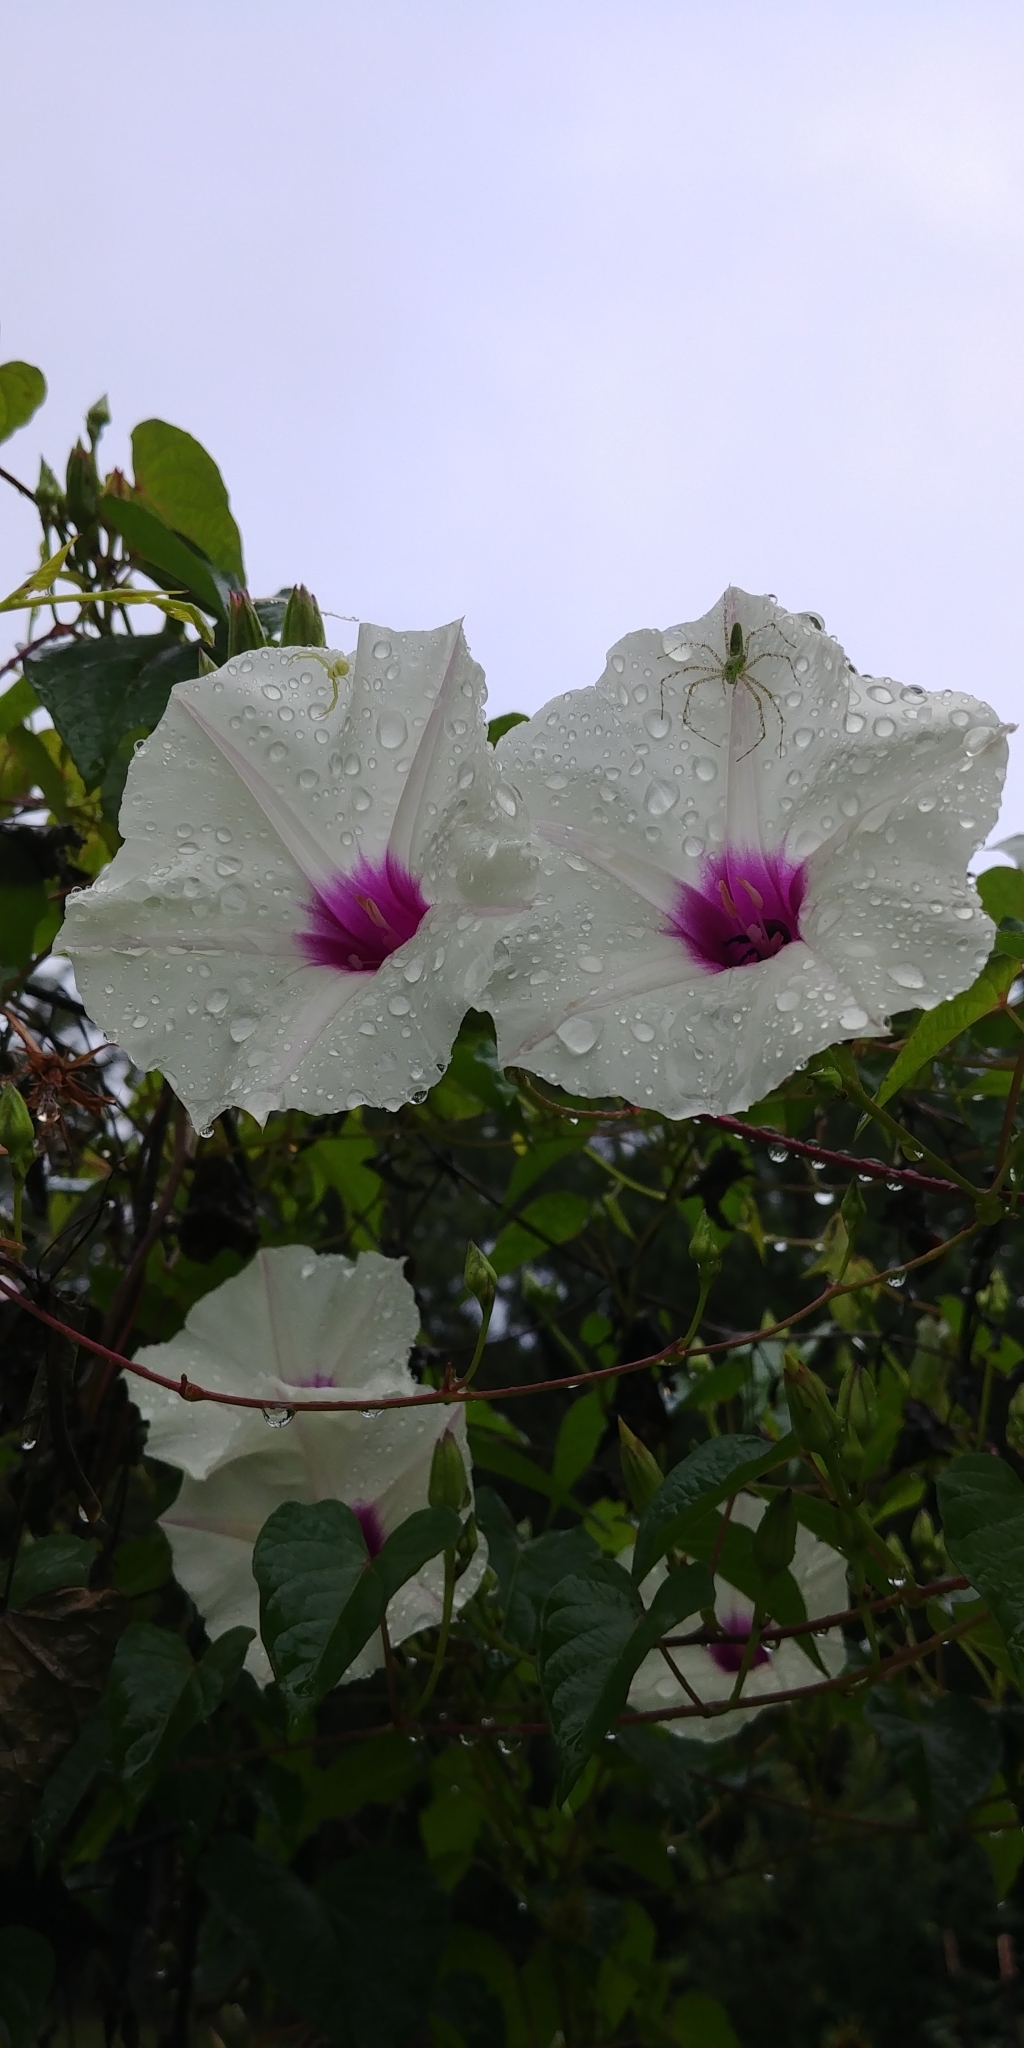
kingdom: Plantae
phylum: Tracheophyta
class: Magnoliopsida
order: Solanales
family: Convolvulaceae
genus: Ipomoea
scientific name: Ipomoea pandurata
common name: Man-of-the-earth
